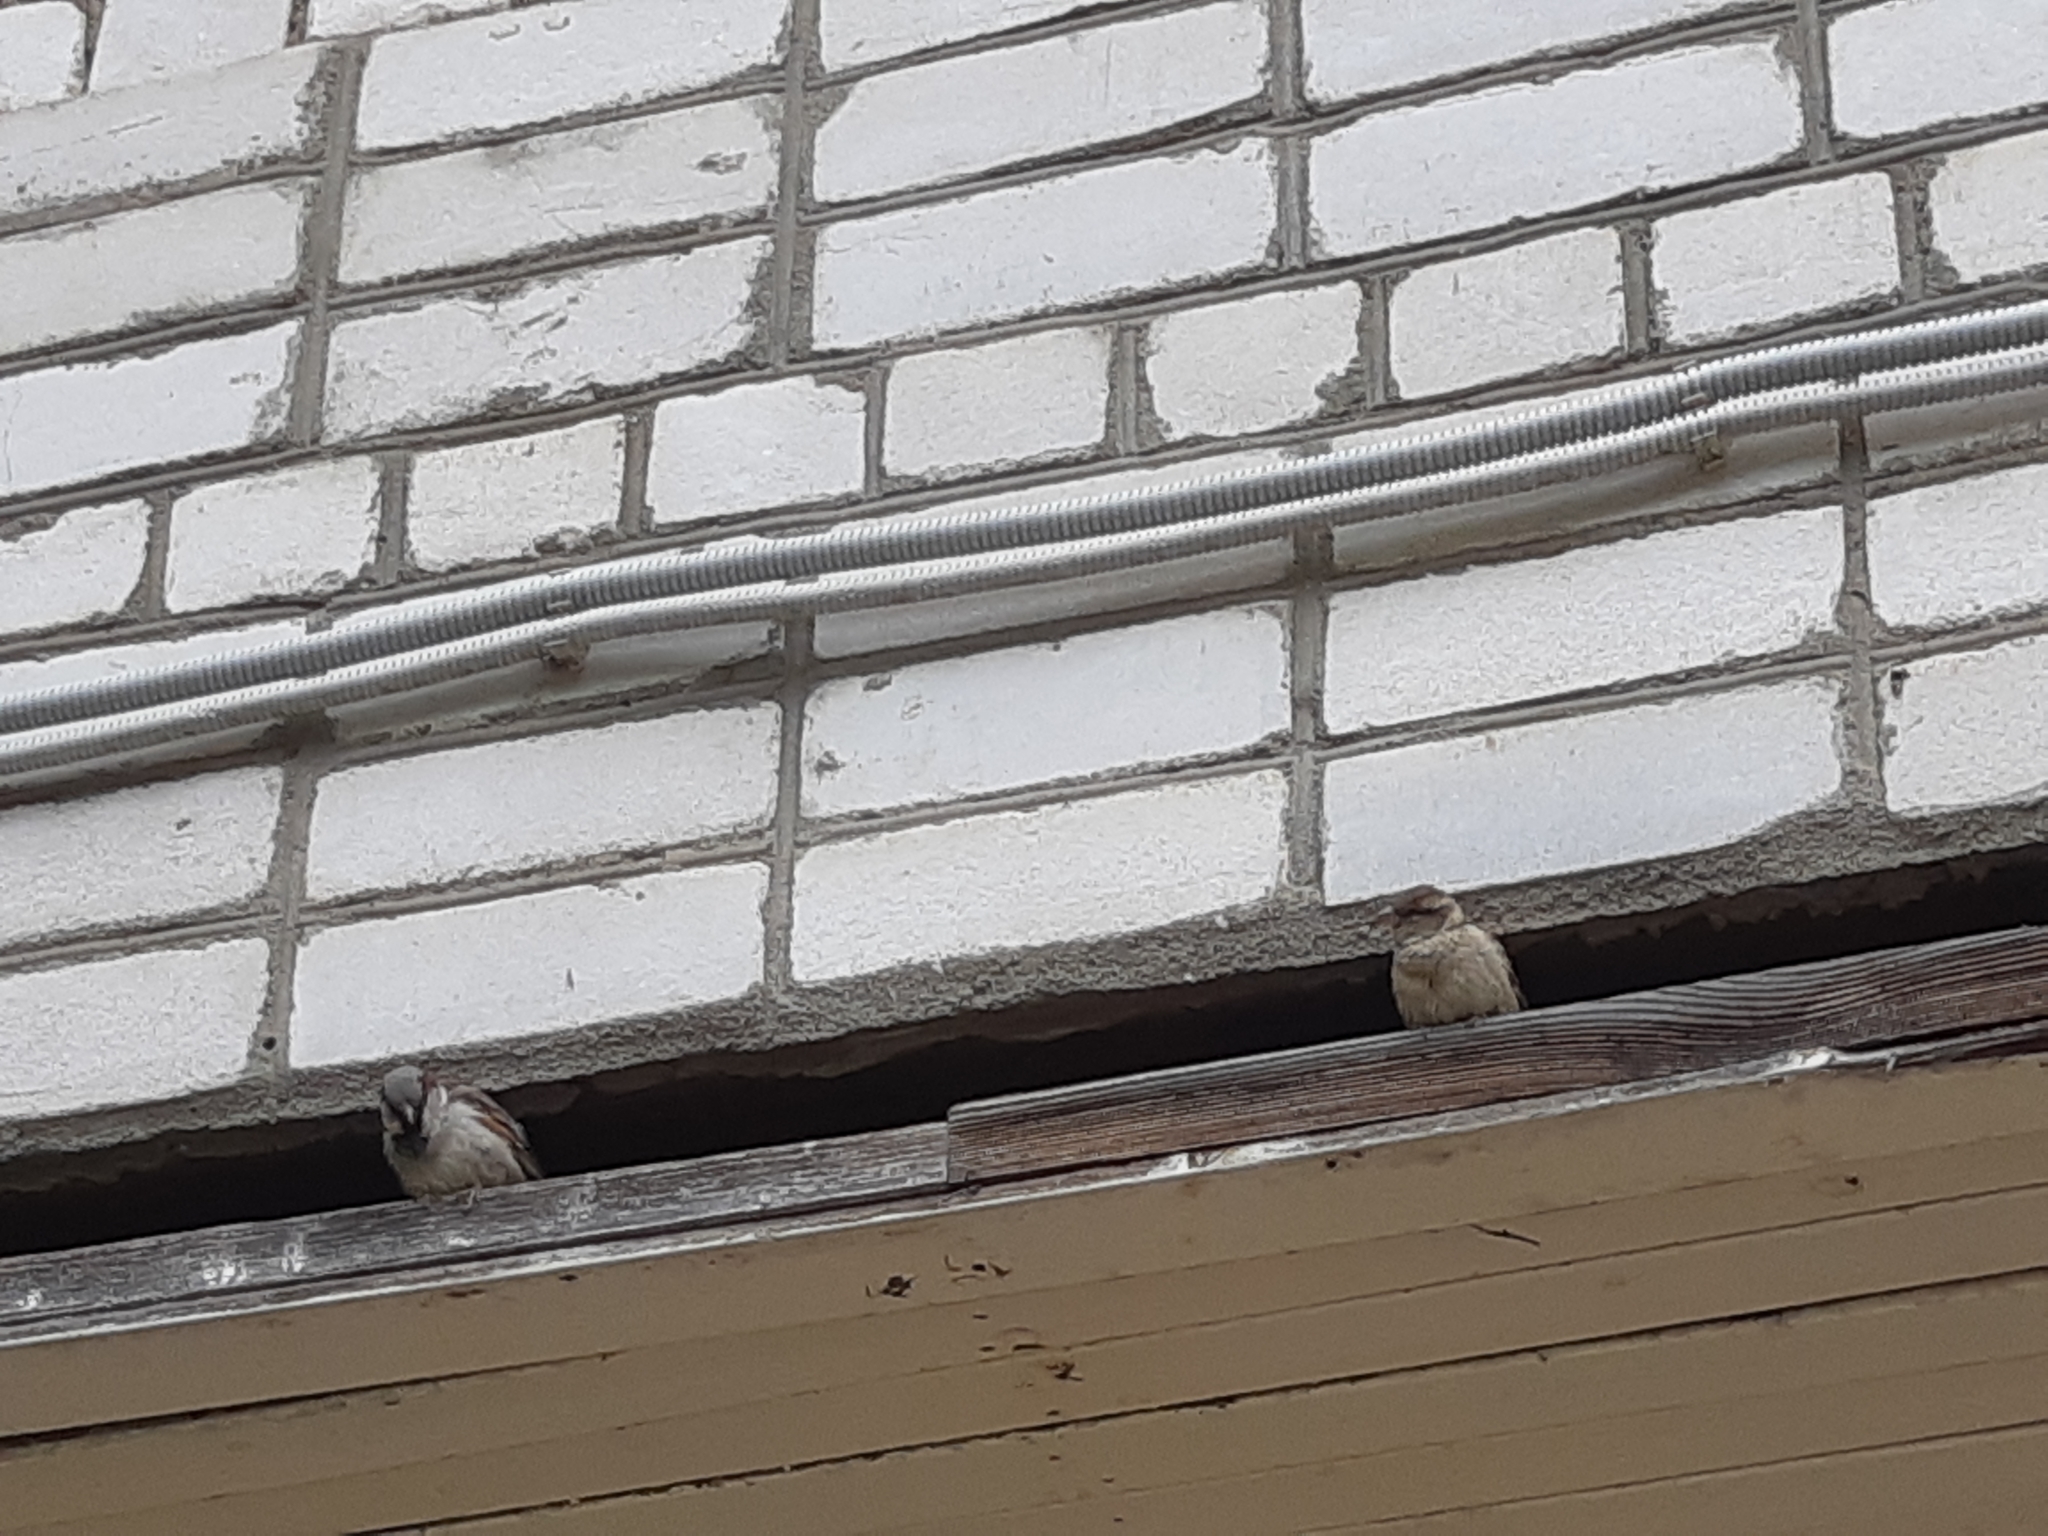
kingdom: Animalia
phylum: Chordata
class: Aves
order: Passeriformes
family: Passeridae
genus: Passer
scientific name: Passer domesticus
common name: House sparrow
